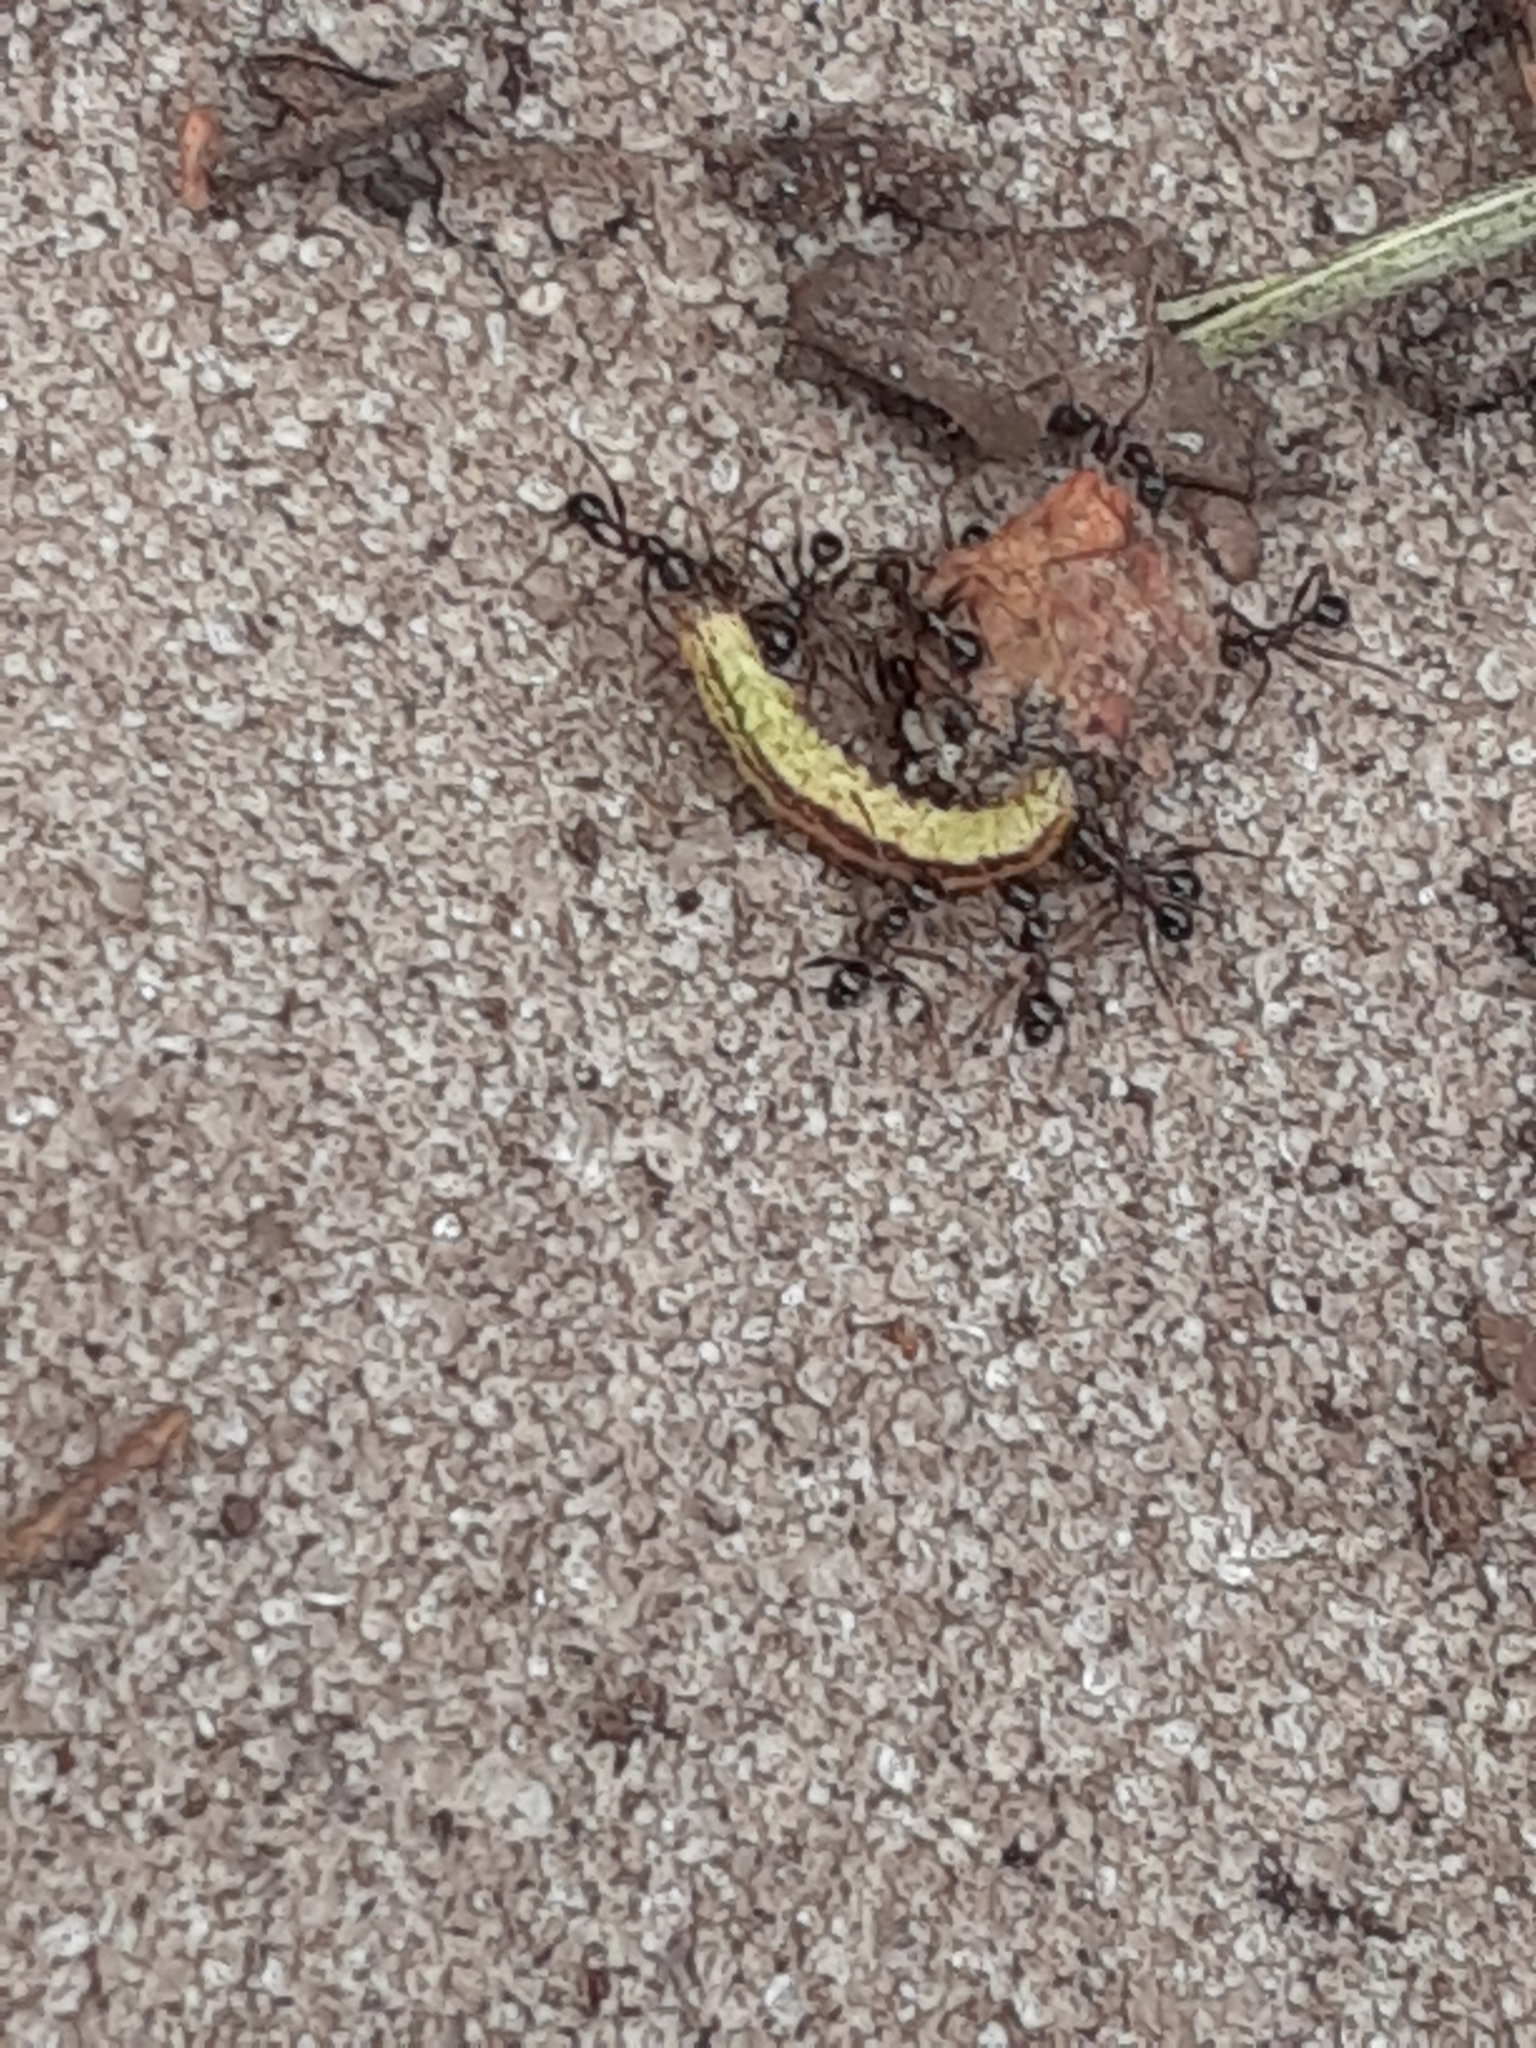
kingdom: Animalia
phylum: Arthropoda
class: Insecta
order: Hymenoptera
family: Formicidae
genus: Pheidole
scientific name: Pheidole obscurithorax
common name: Obscure big-headed ant
